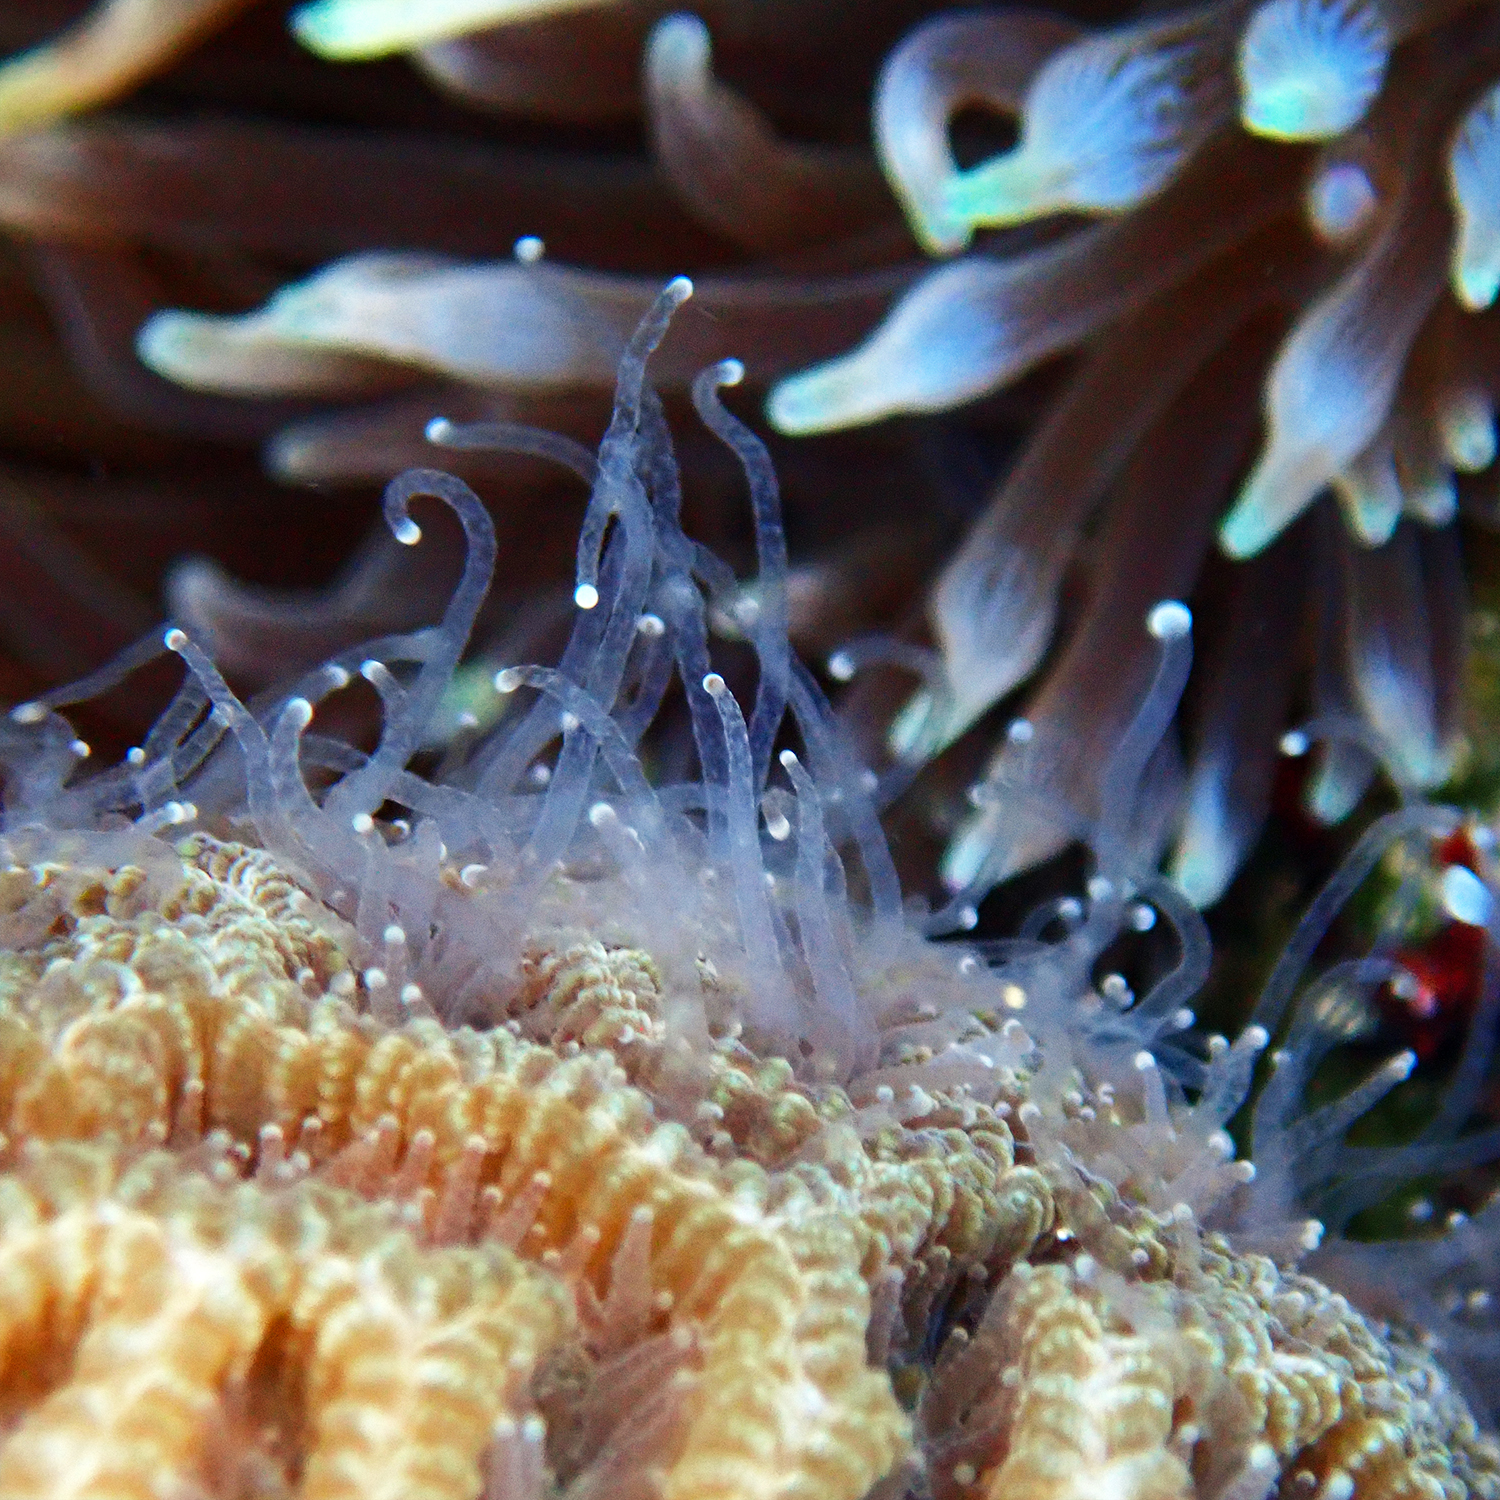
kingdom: Animalia
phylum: Cnidaria
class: Anthozoa
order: Scleractinia
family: Merulinidae
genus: Paragoniastrea
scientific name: Paragoniastrea australensis
